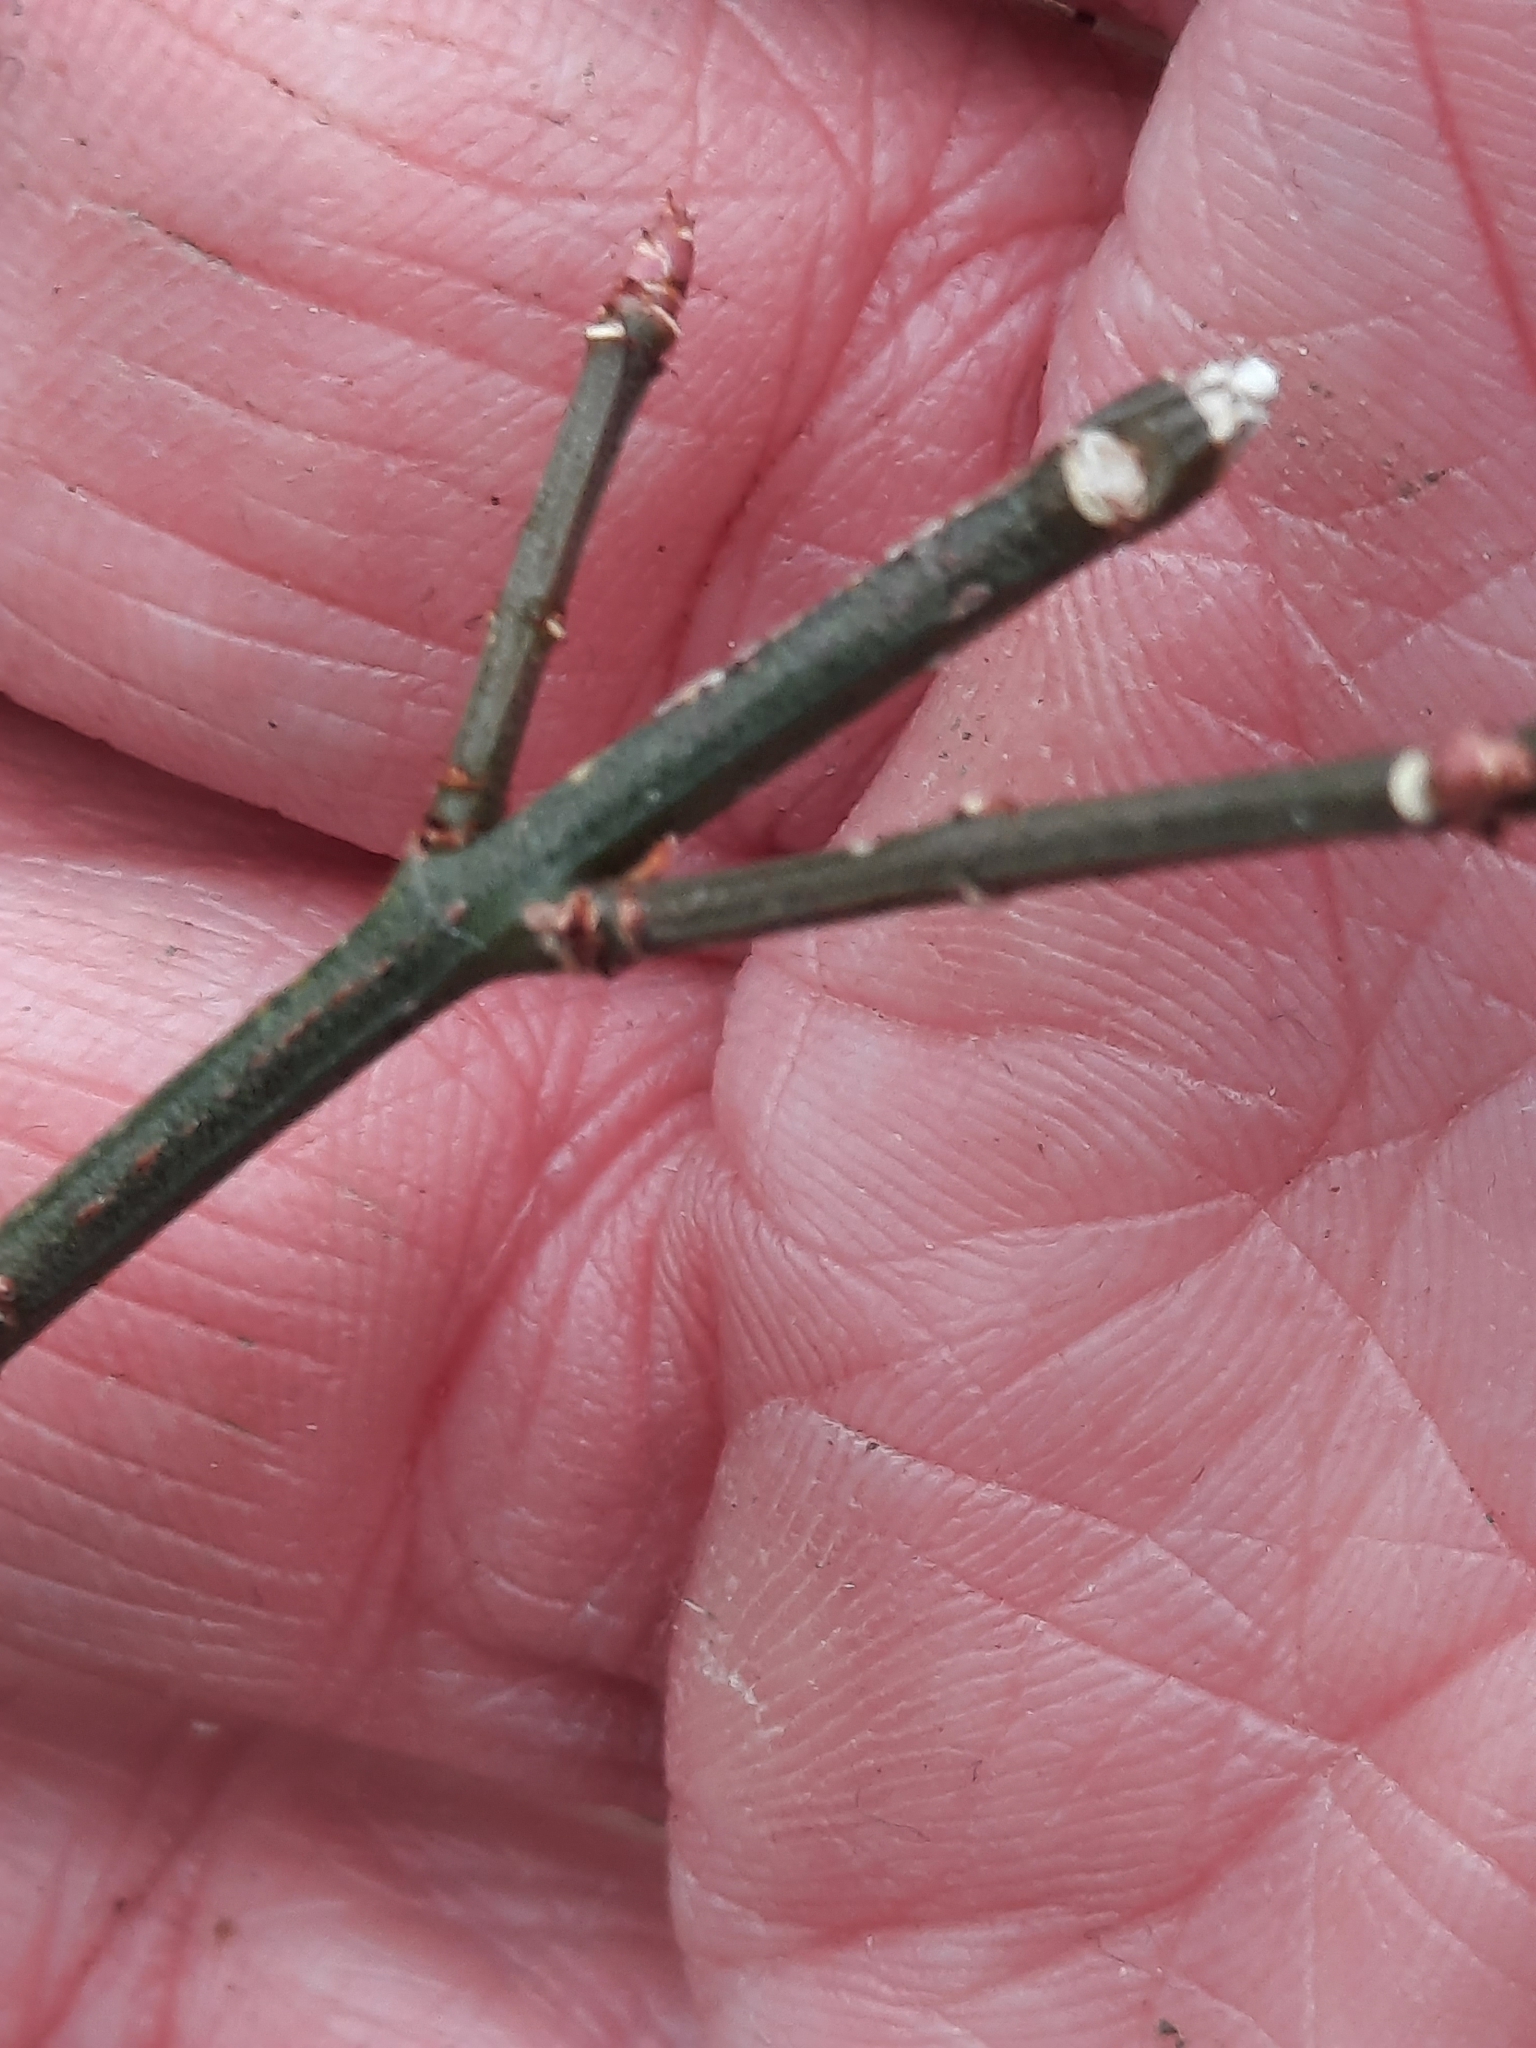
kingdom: Plantae
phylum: Tracheophyta
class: Magnoliopsida
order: Celastrales
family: Celastraceae
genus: Euonymus
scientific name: Euonymus alatus
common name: Winged euonymus
